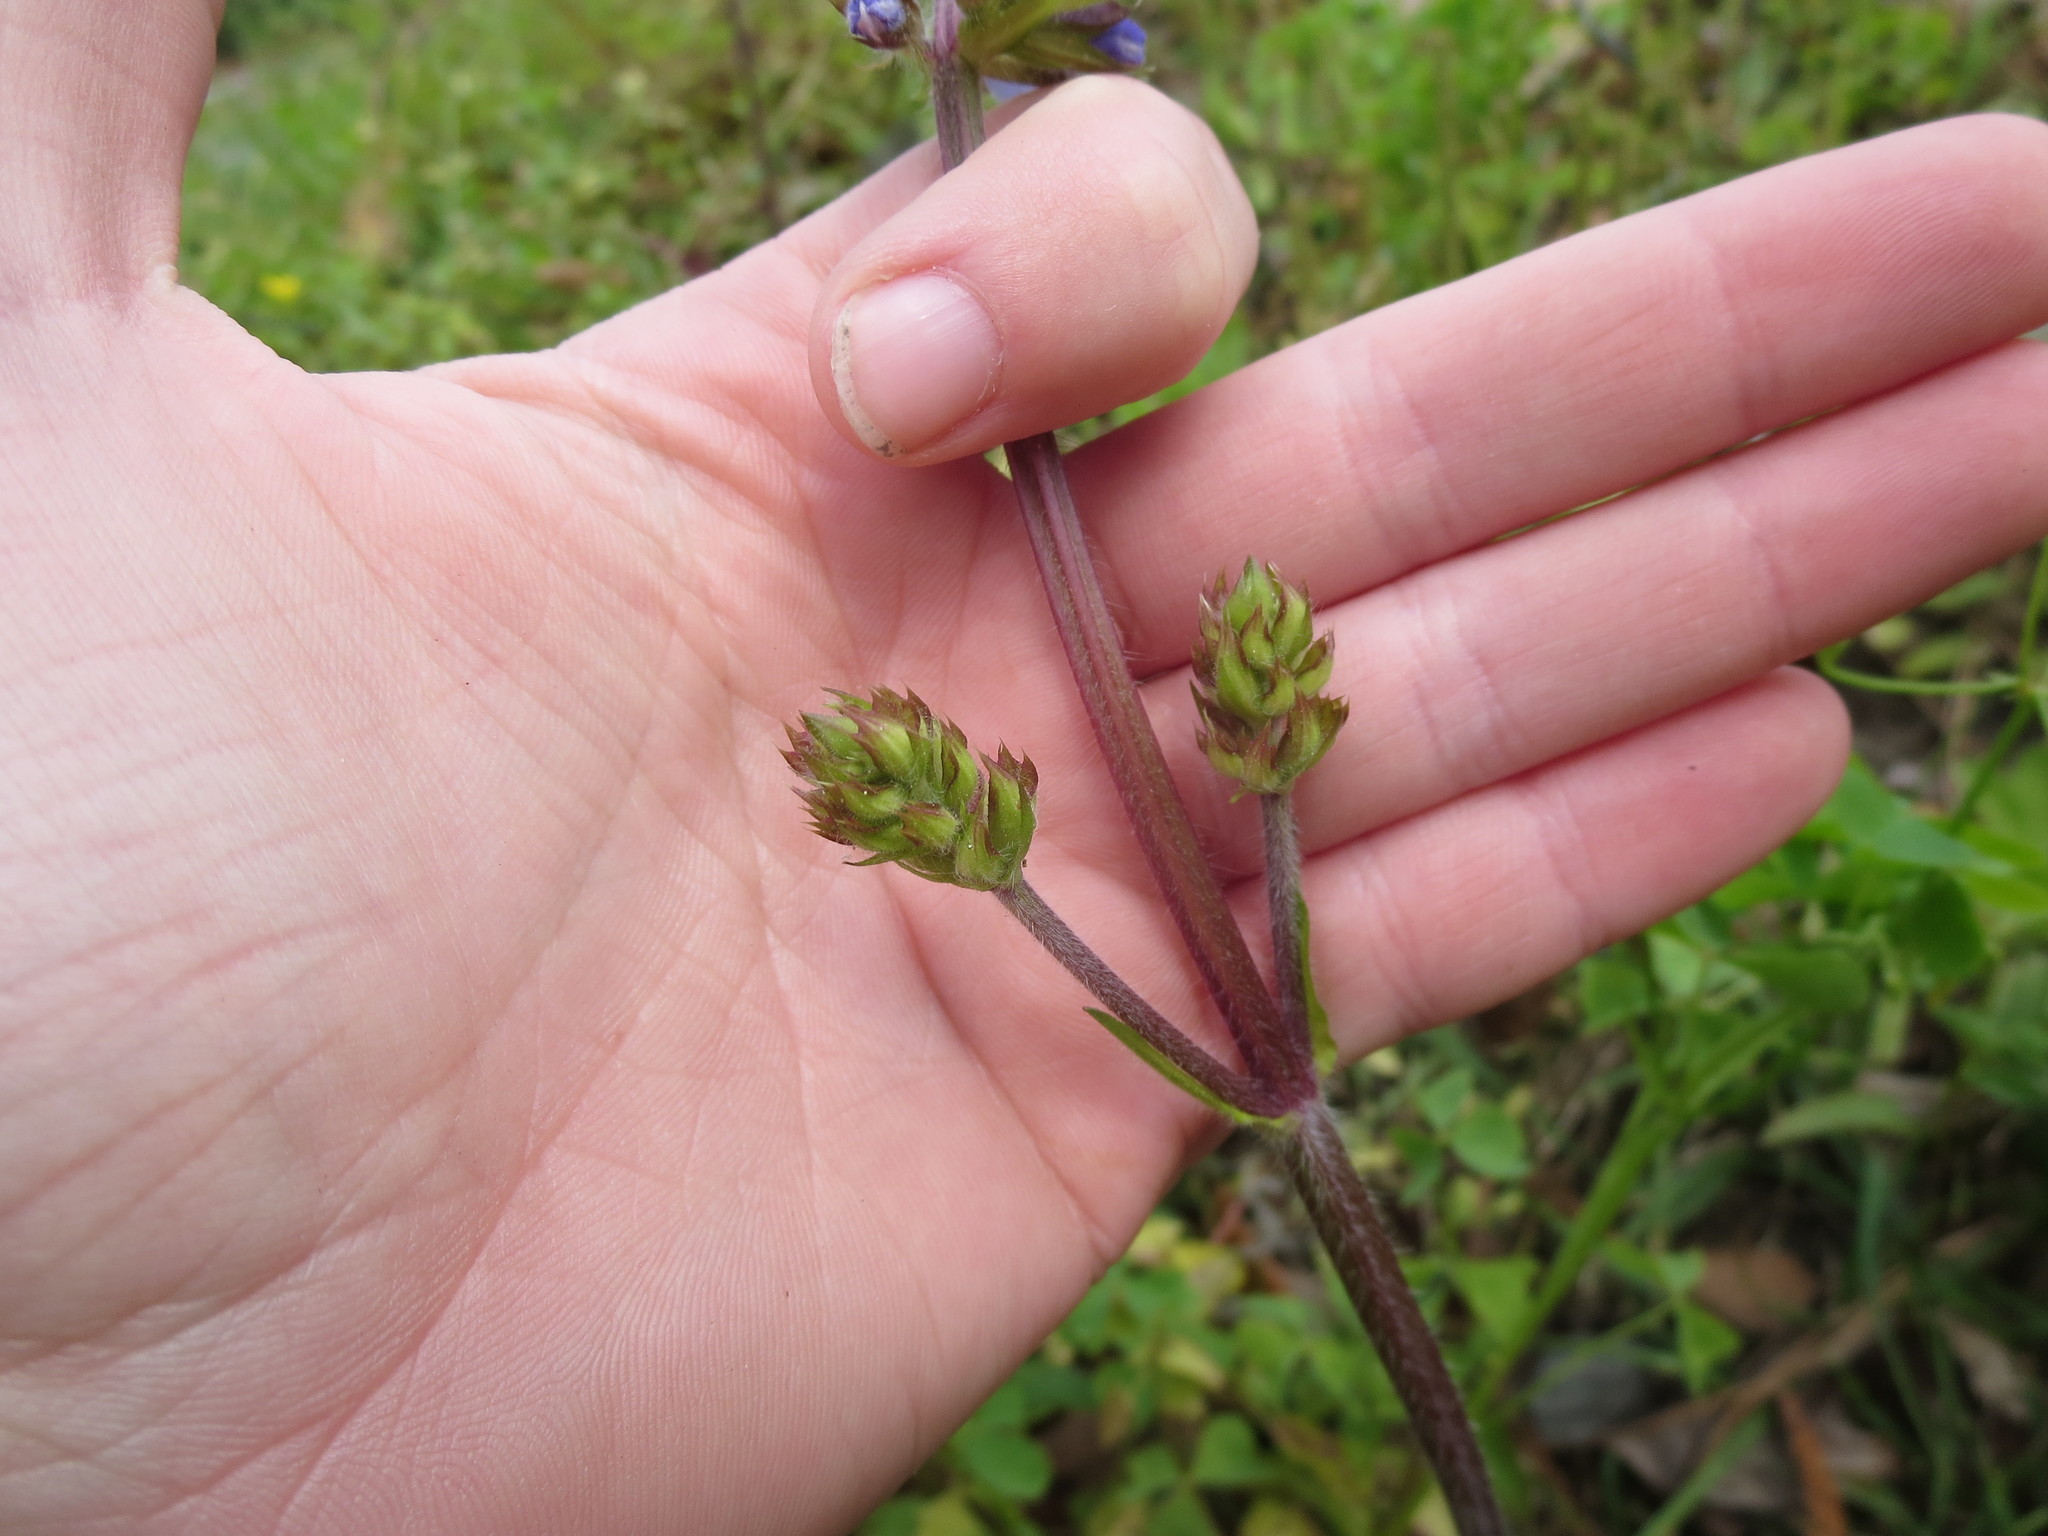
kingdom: Plantae
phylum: Tracheophyta
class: Magnoliopsida
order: Lamiales
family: Lamiaceae
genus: Salvia
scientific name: Salvia lyrata
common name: Cancerweed
